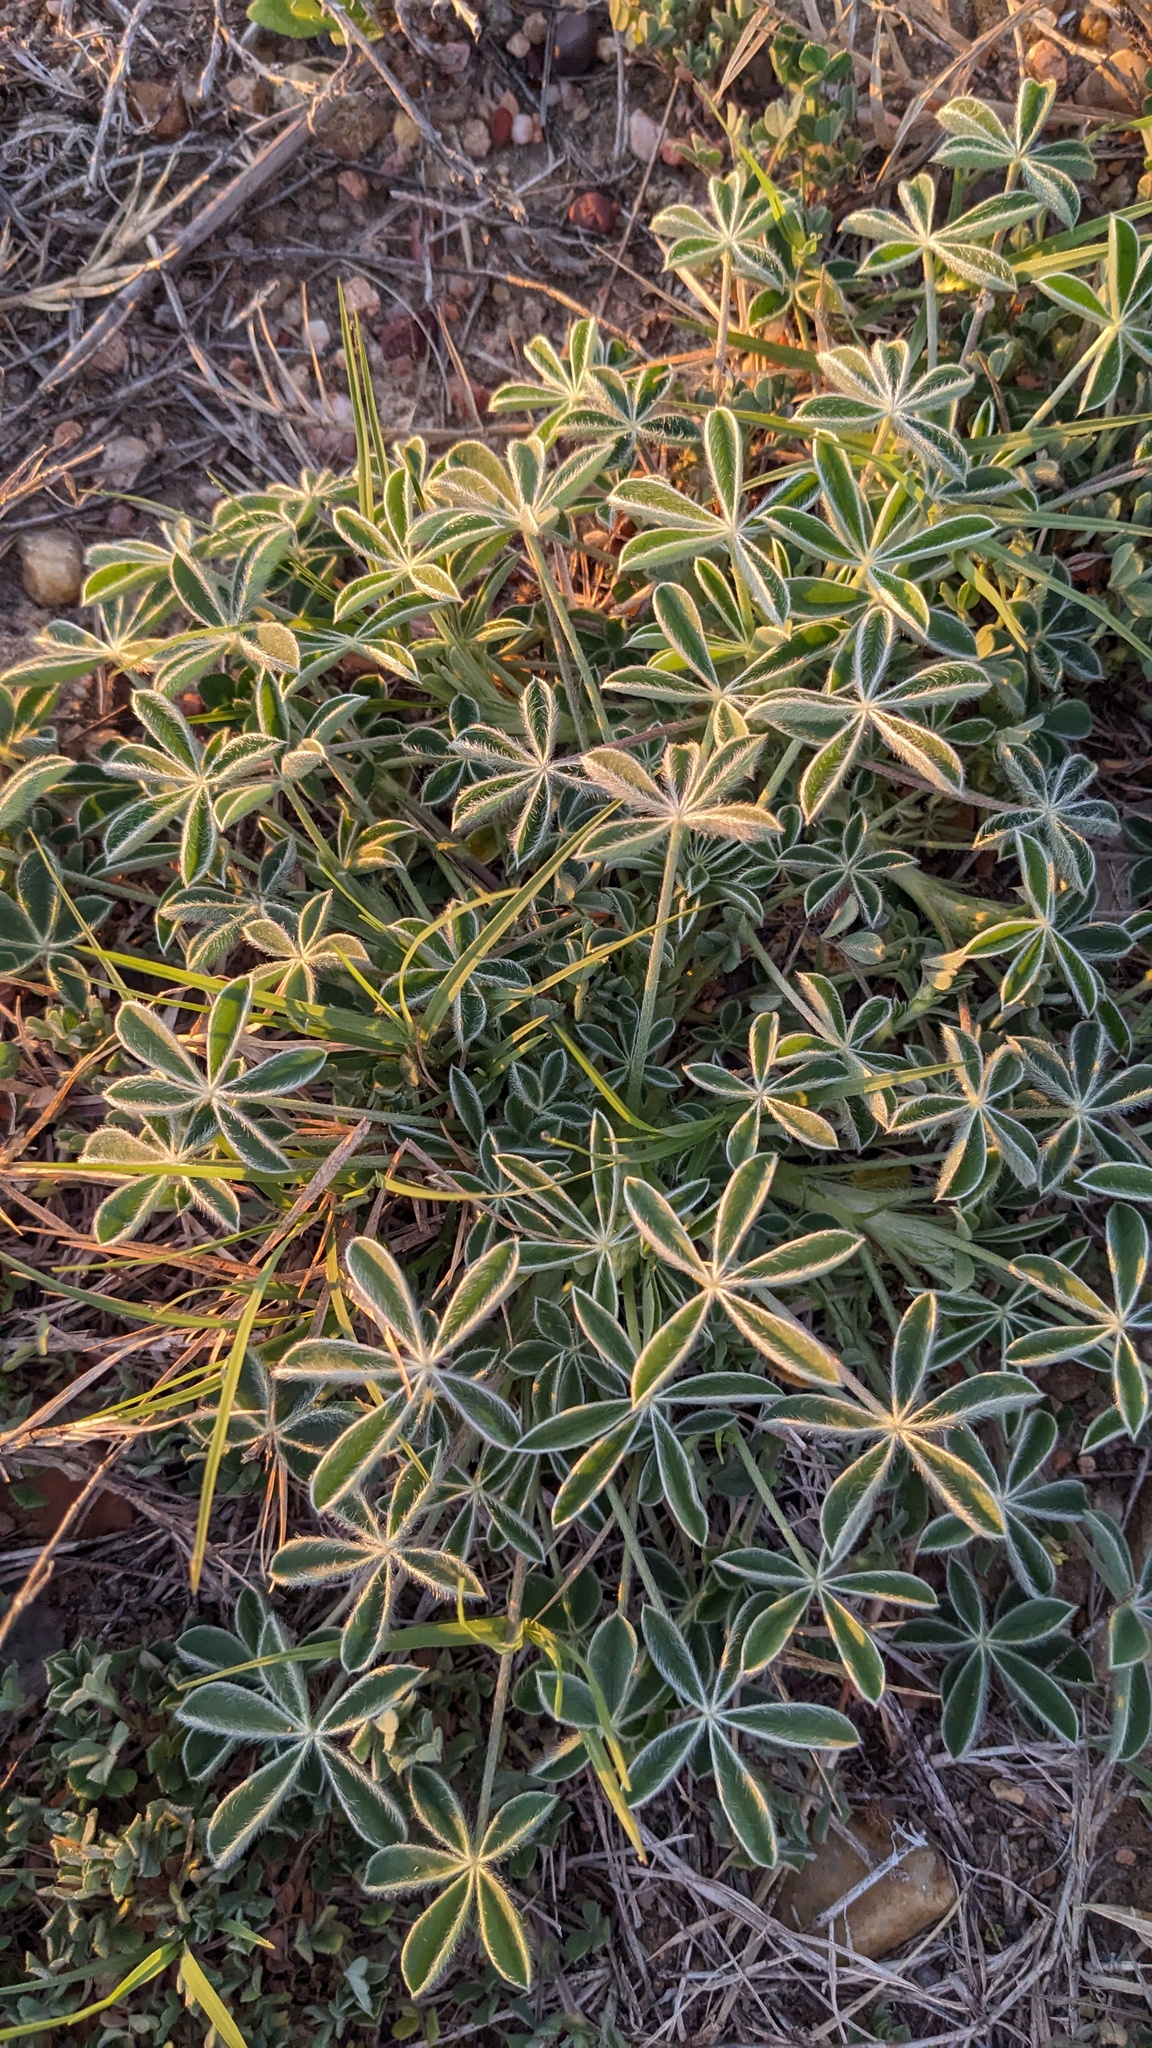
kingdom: Plantae
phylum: Tracheophyta
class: Magnoliopsida
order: Fabales
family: Fabaceae
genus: Lupinus
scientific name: Lupinus texensis
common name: Texas bluebonnet
